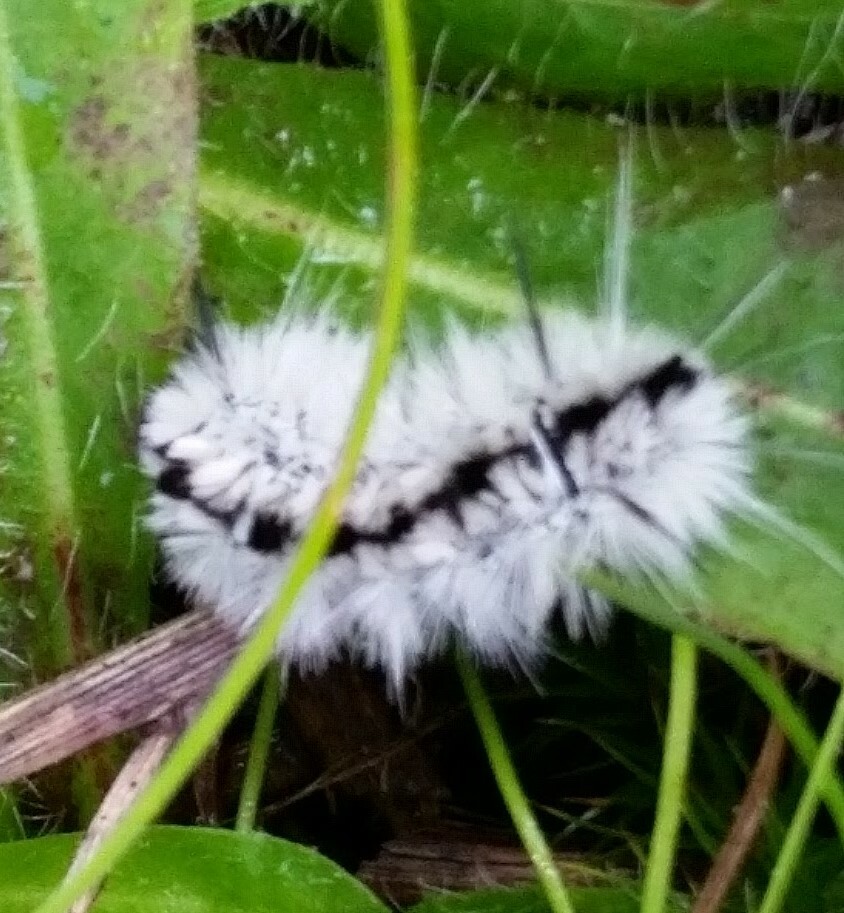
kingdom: Animalia
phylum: Arthropoda
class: Insecta
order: Lepidoptera
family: Erebidae
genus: Lophocampa
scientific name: Lophocampa caryae
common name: Hickory tussock moth
